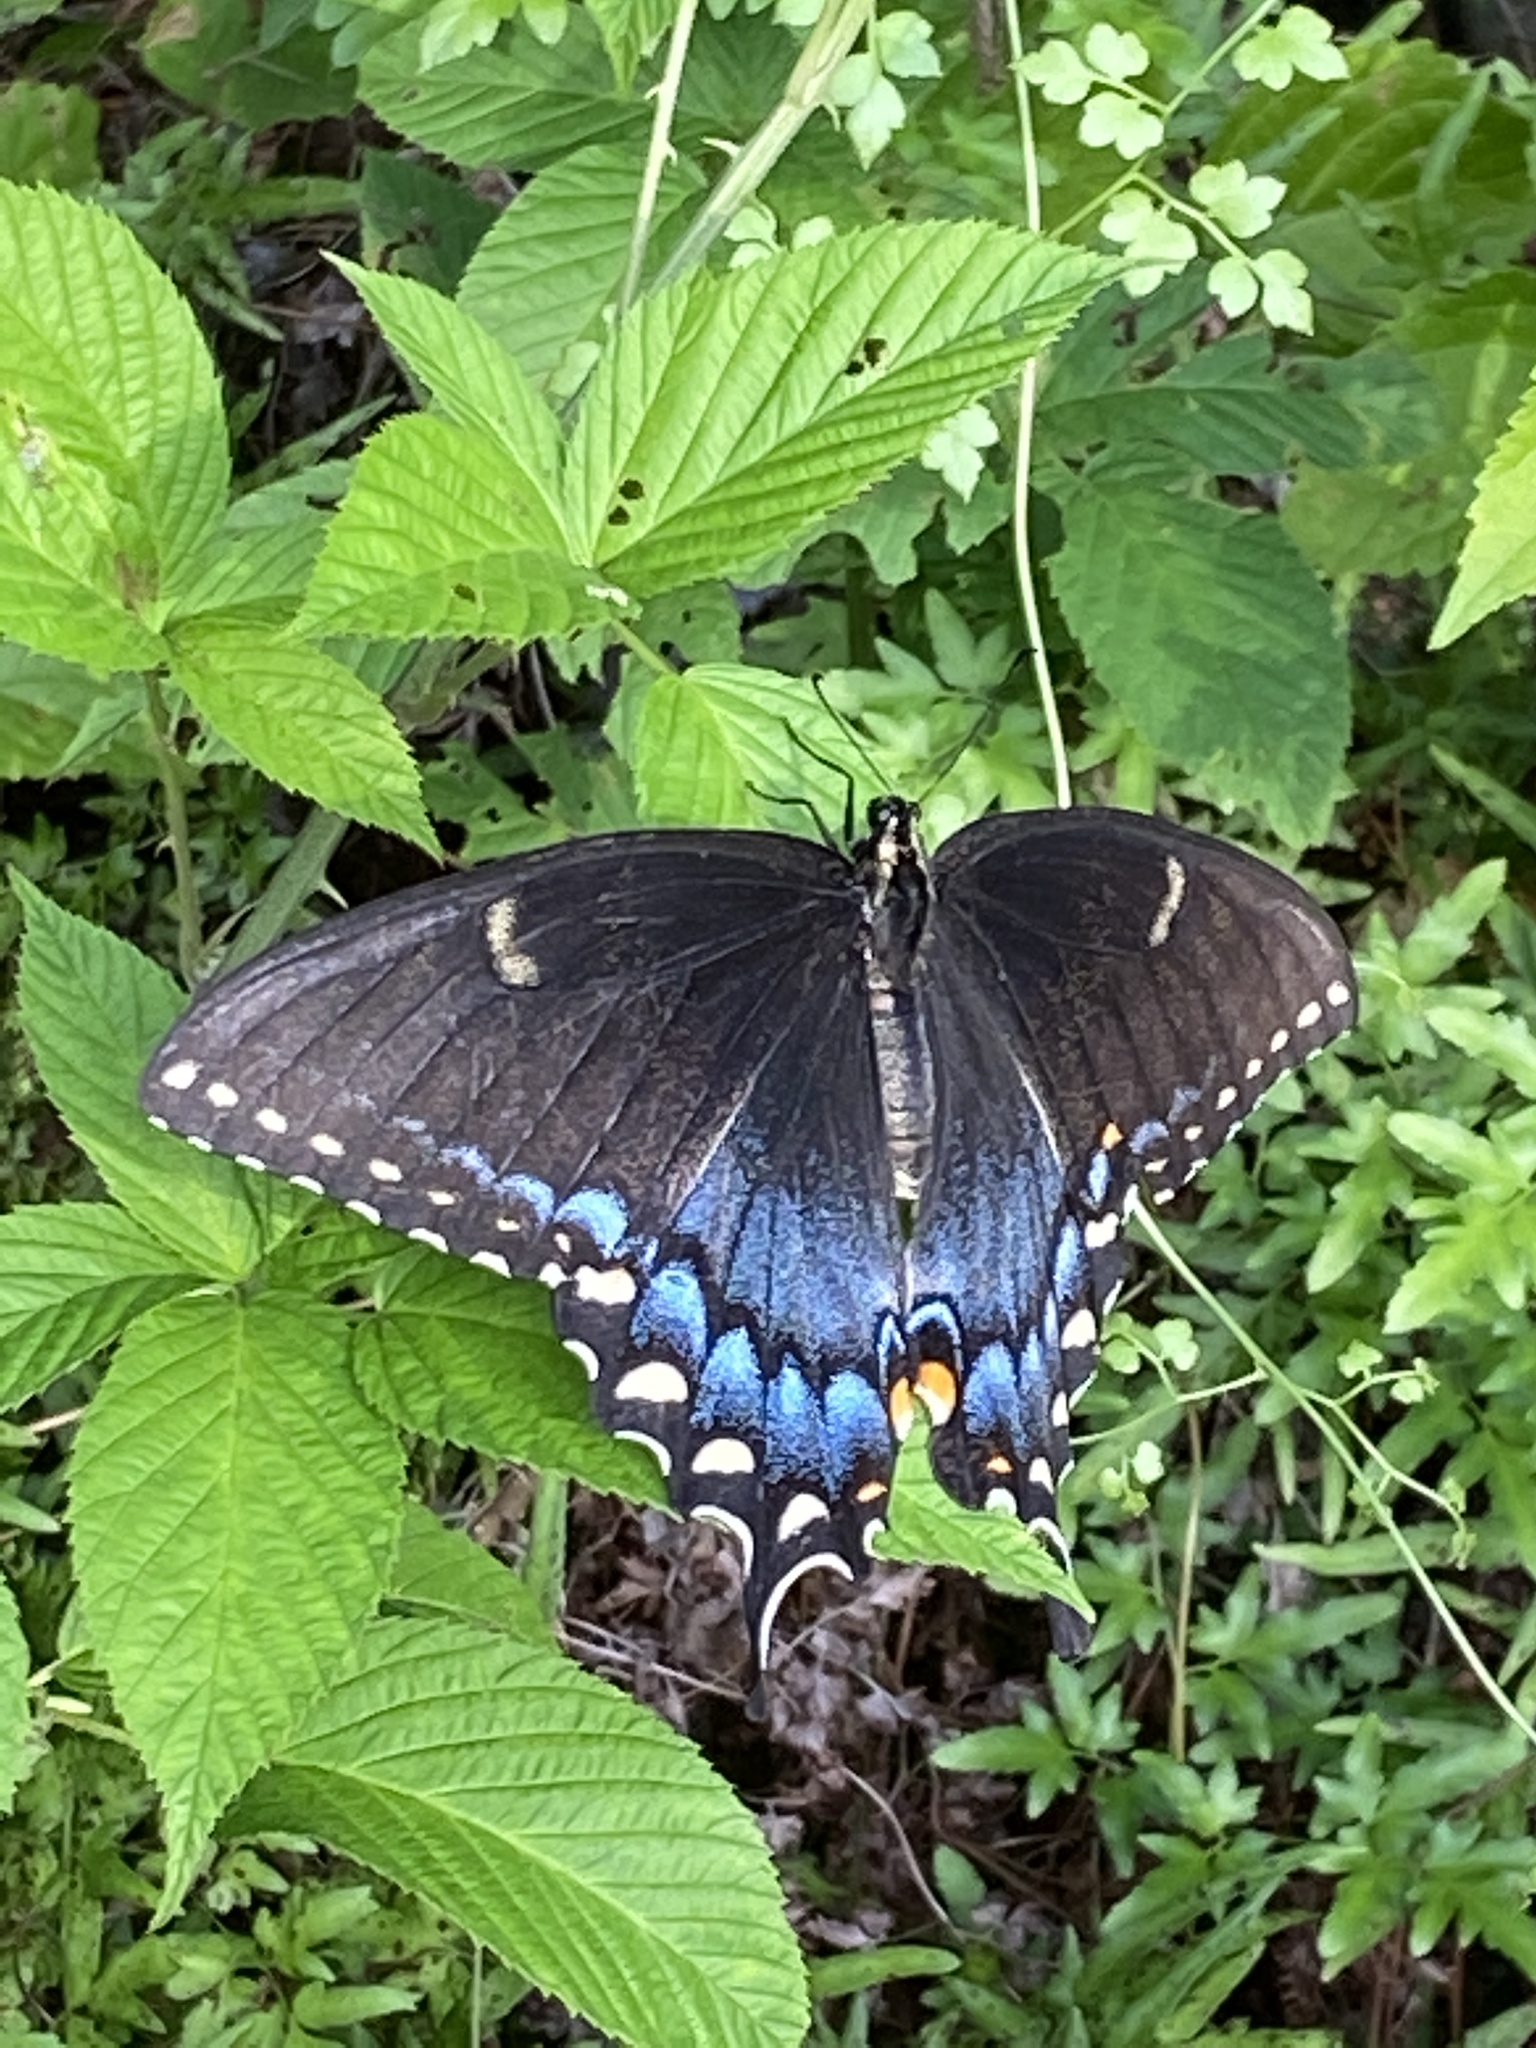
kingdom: Animalia
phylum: Arthropoda
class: Insecta
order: Lepidoptera
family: Papilionidae
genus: Papilio
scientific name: Papilio glaucus
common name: Tiger swallowtail
